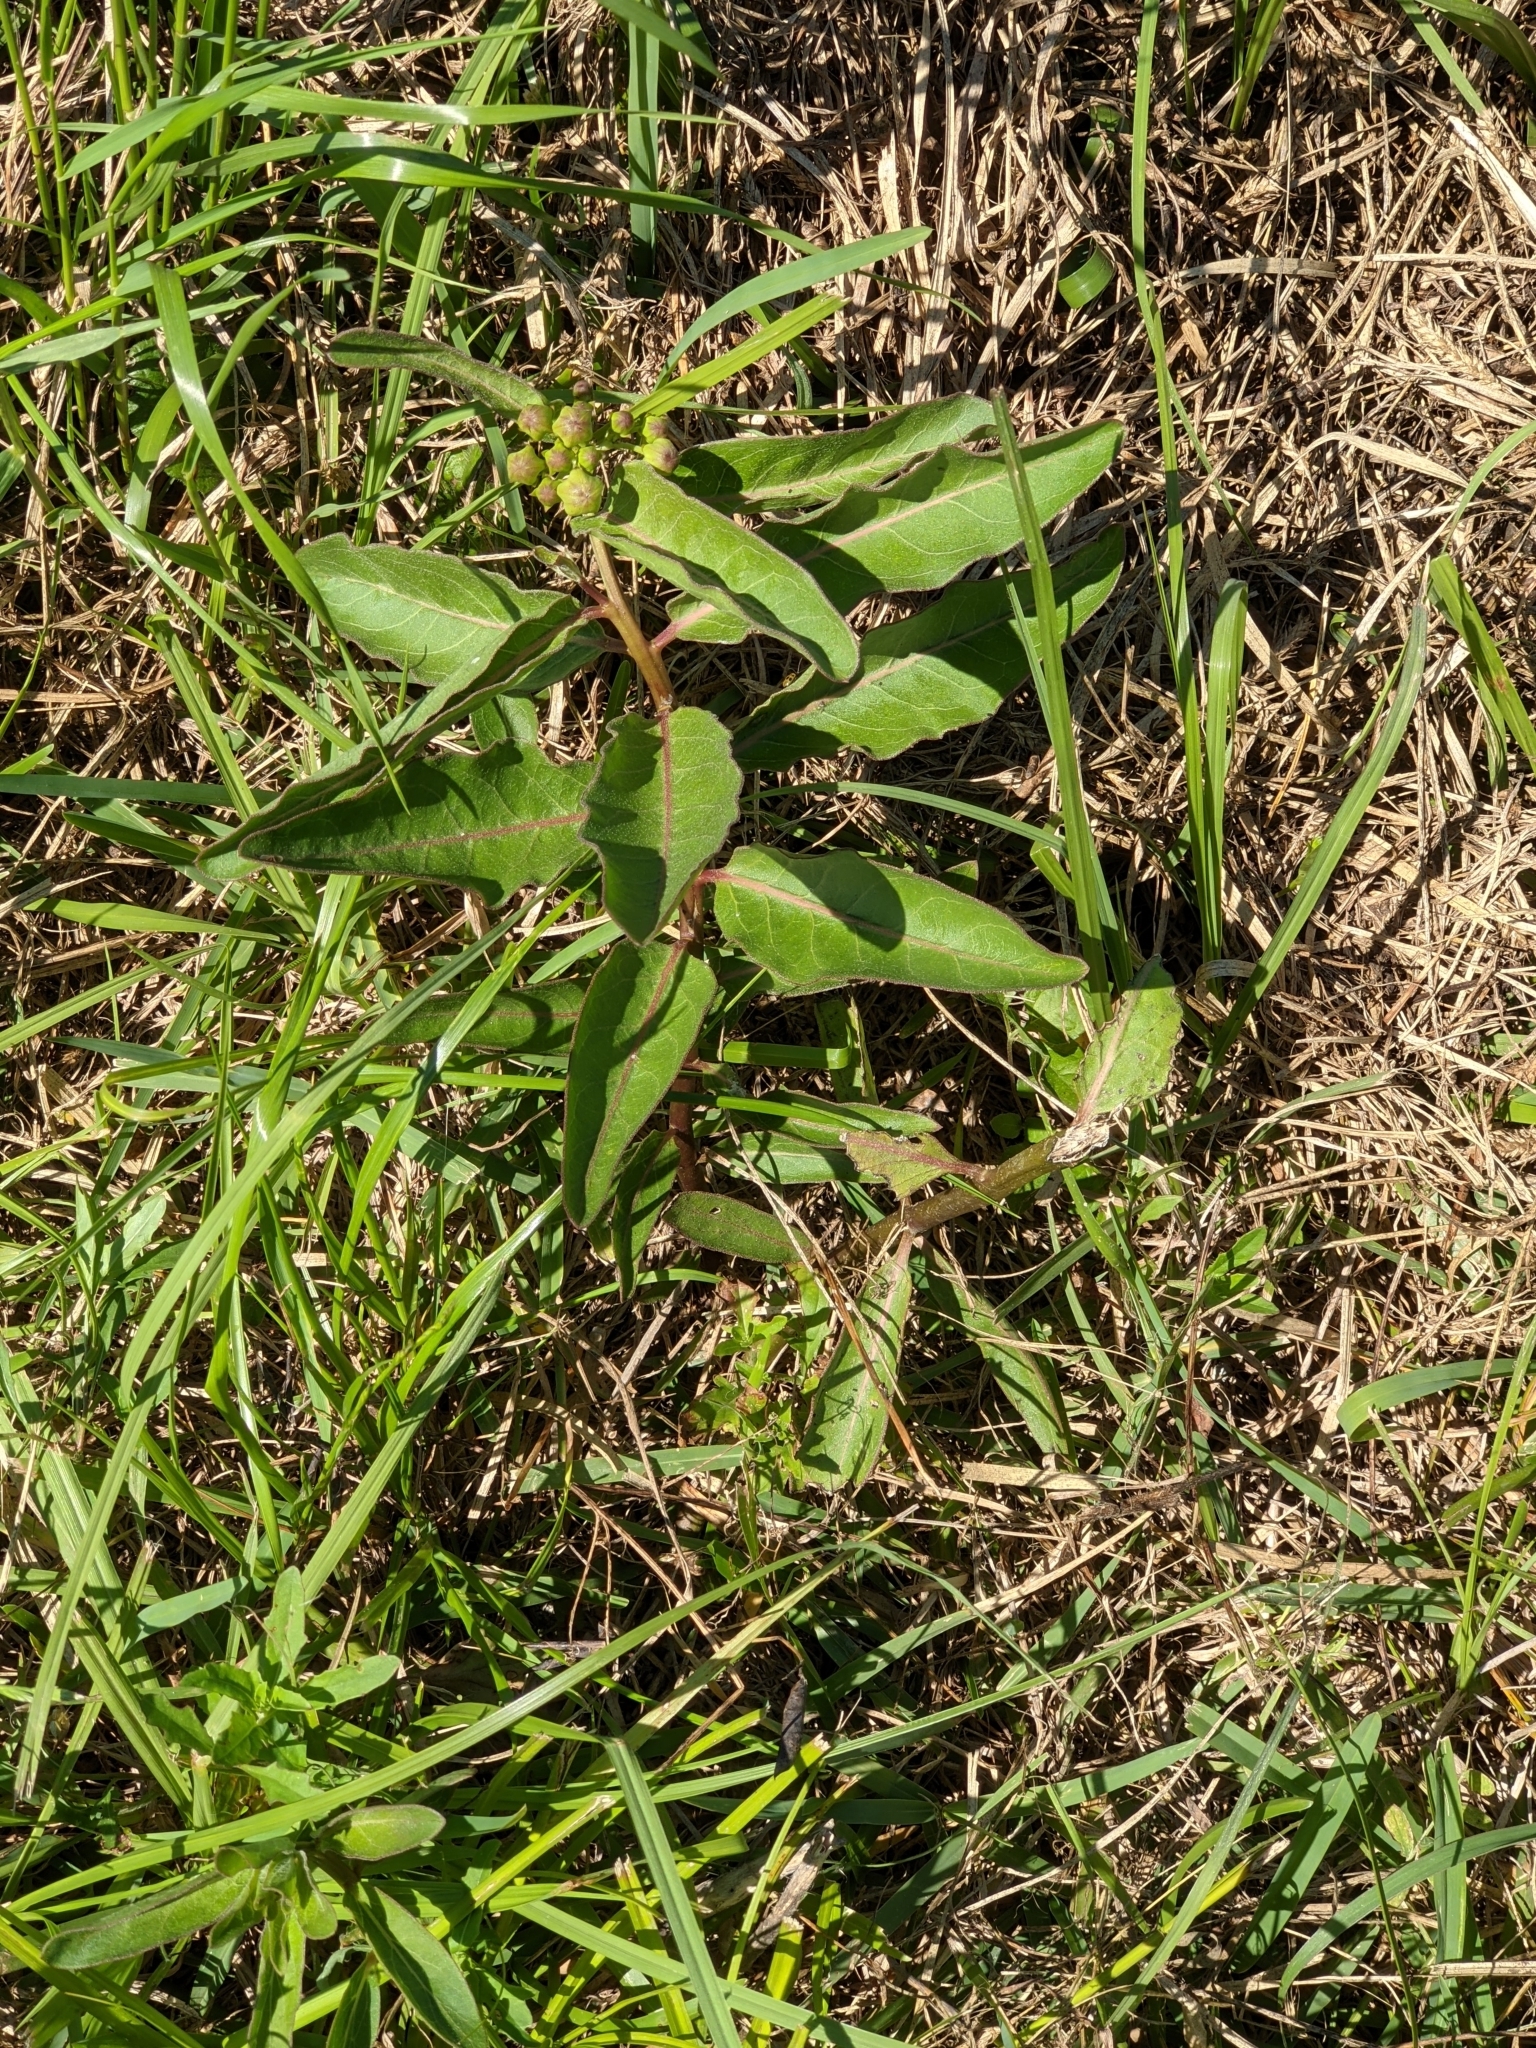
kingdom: Plantae
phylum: Tracheophyta
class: Magnoliopsida
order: Gentianales
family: Apocynaceae
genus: Asclepias
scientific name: Asclepias viridis
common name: Antelope-horns
